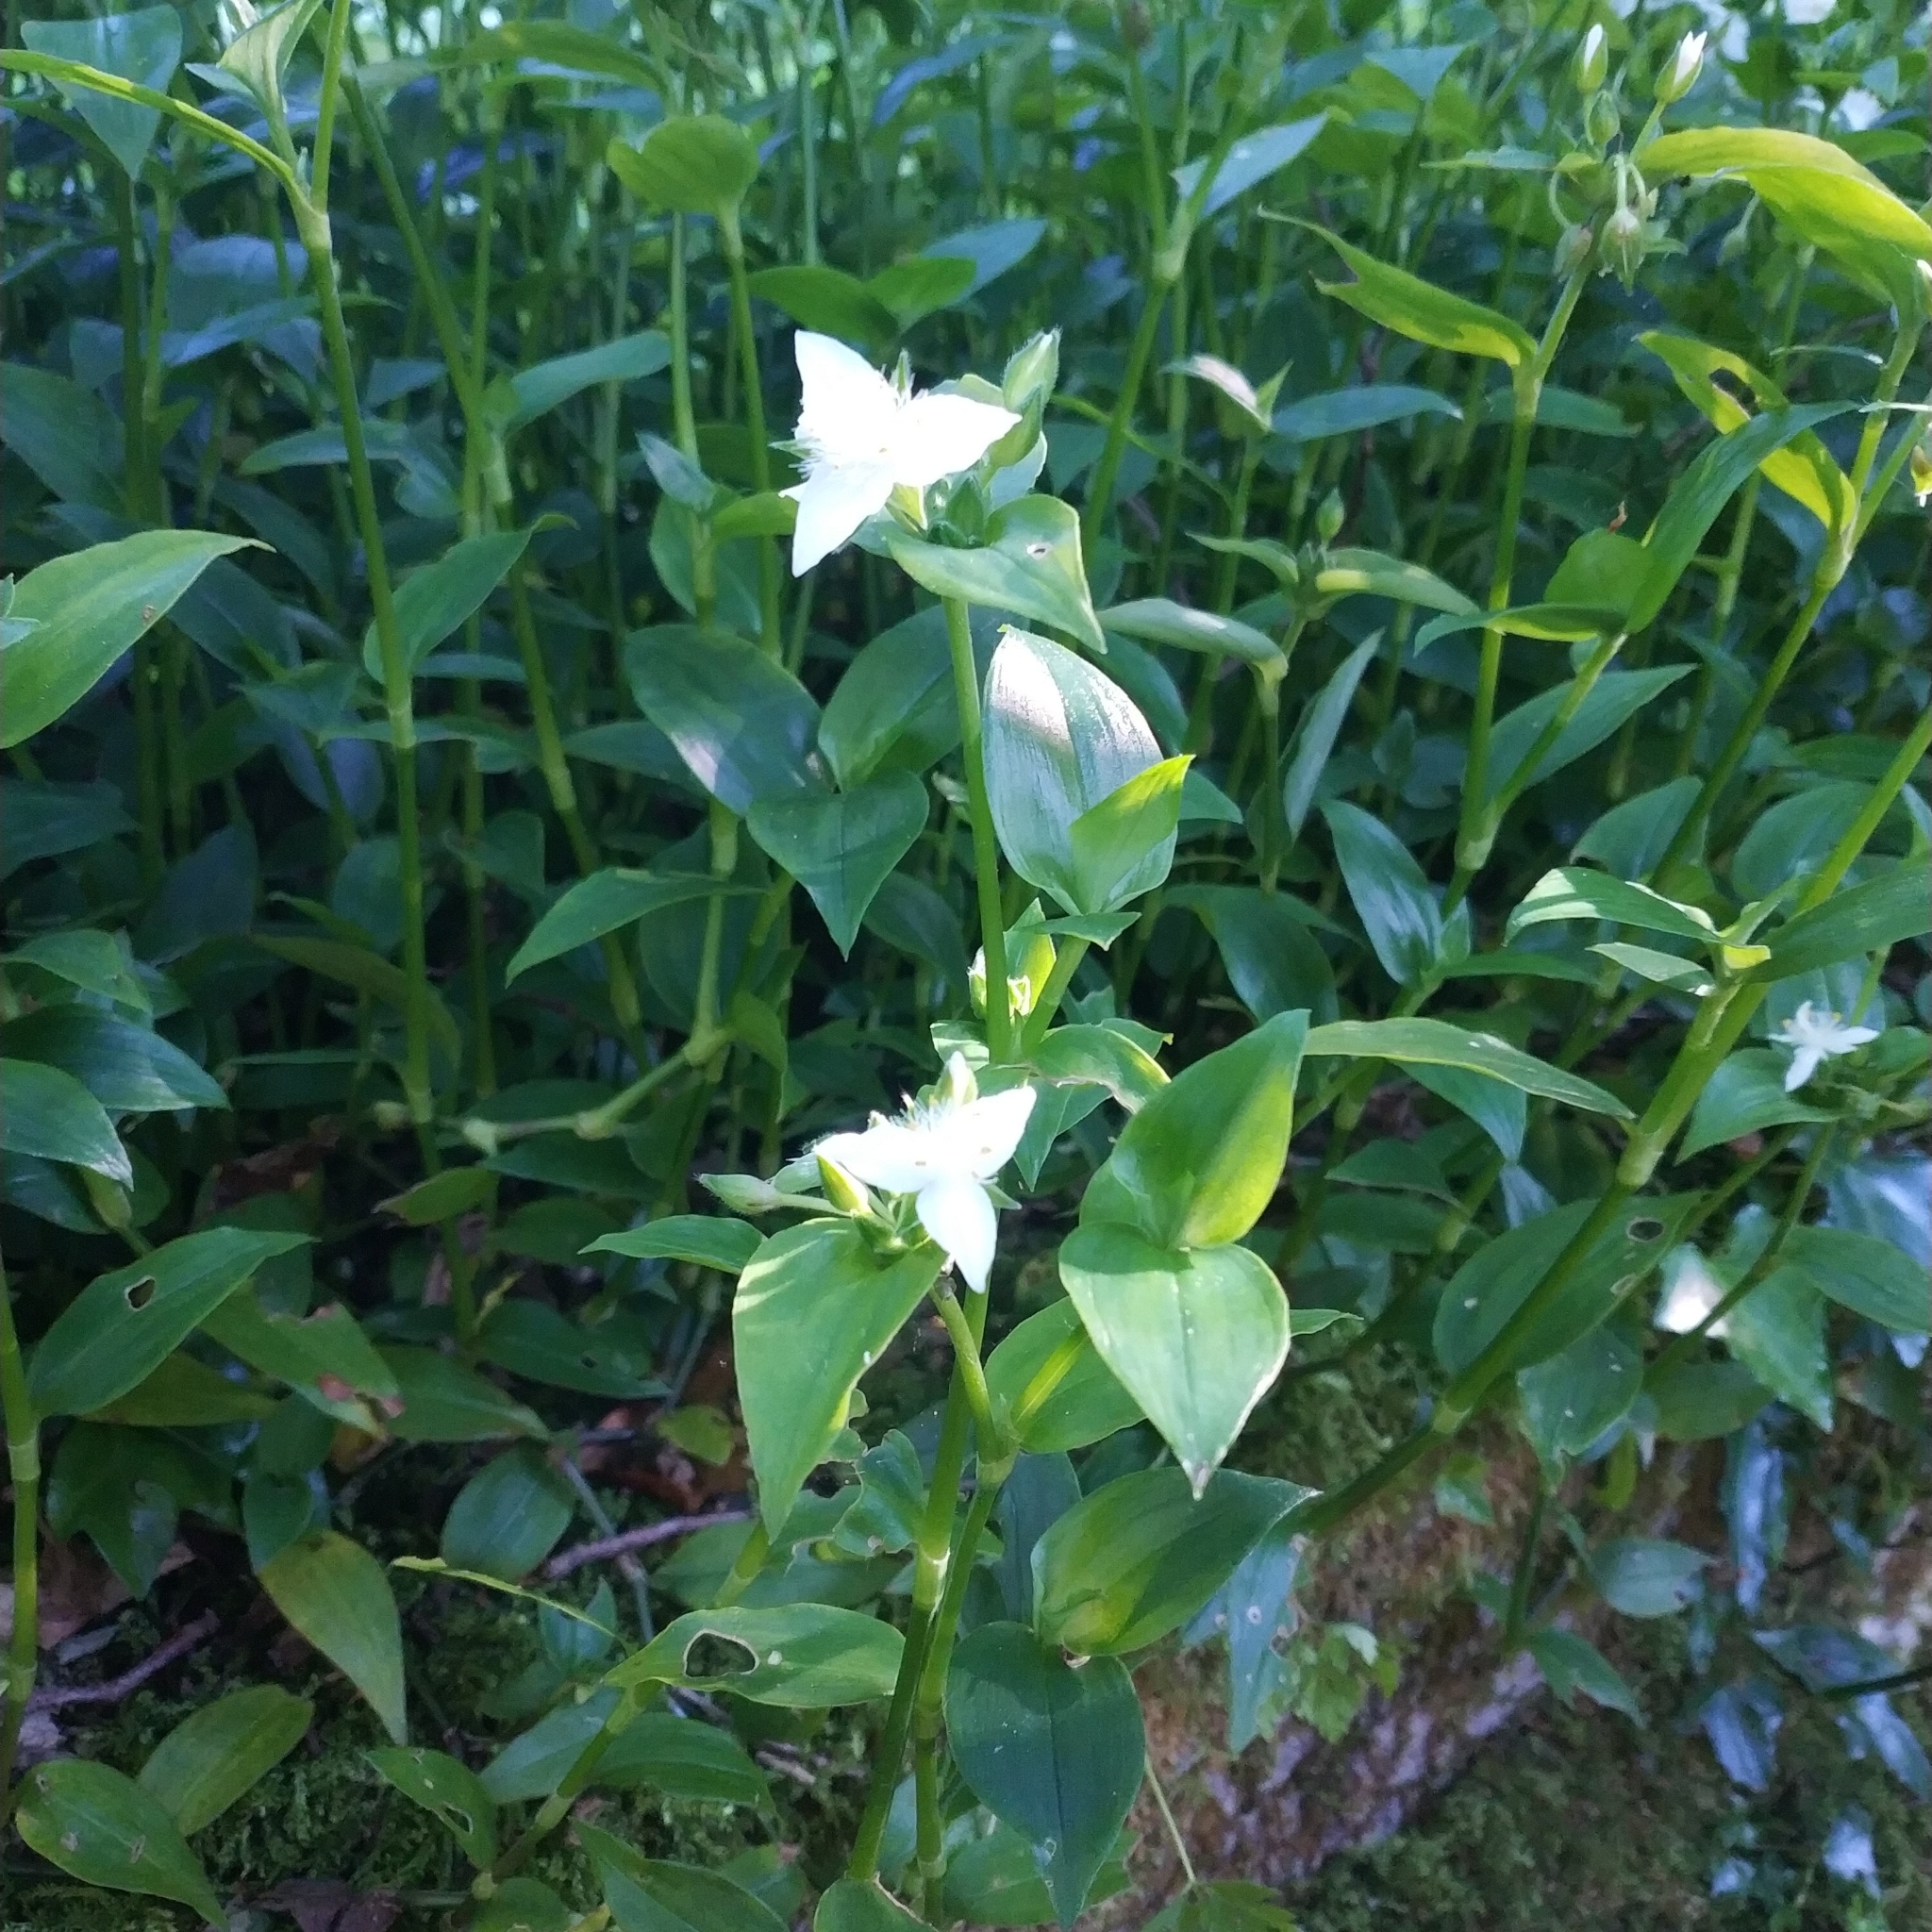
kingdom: Plantae
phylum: Tracheophyta
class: Liliopsida
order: Commelinales
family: Commelinaceae
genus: Tradescantia
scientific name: Tradescantia fluminensis
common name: Wandering-jew
